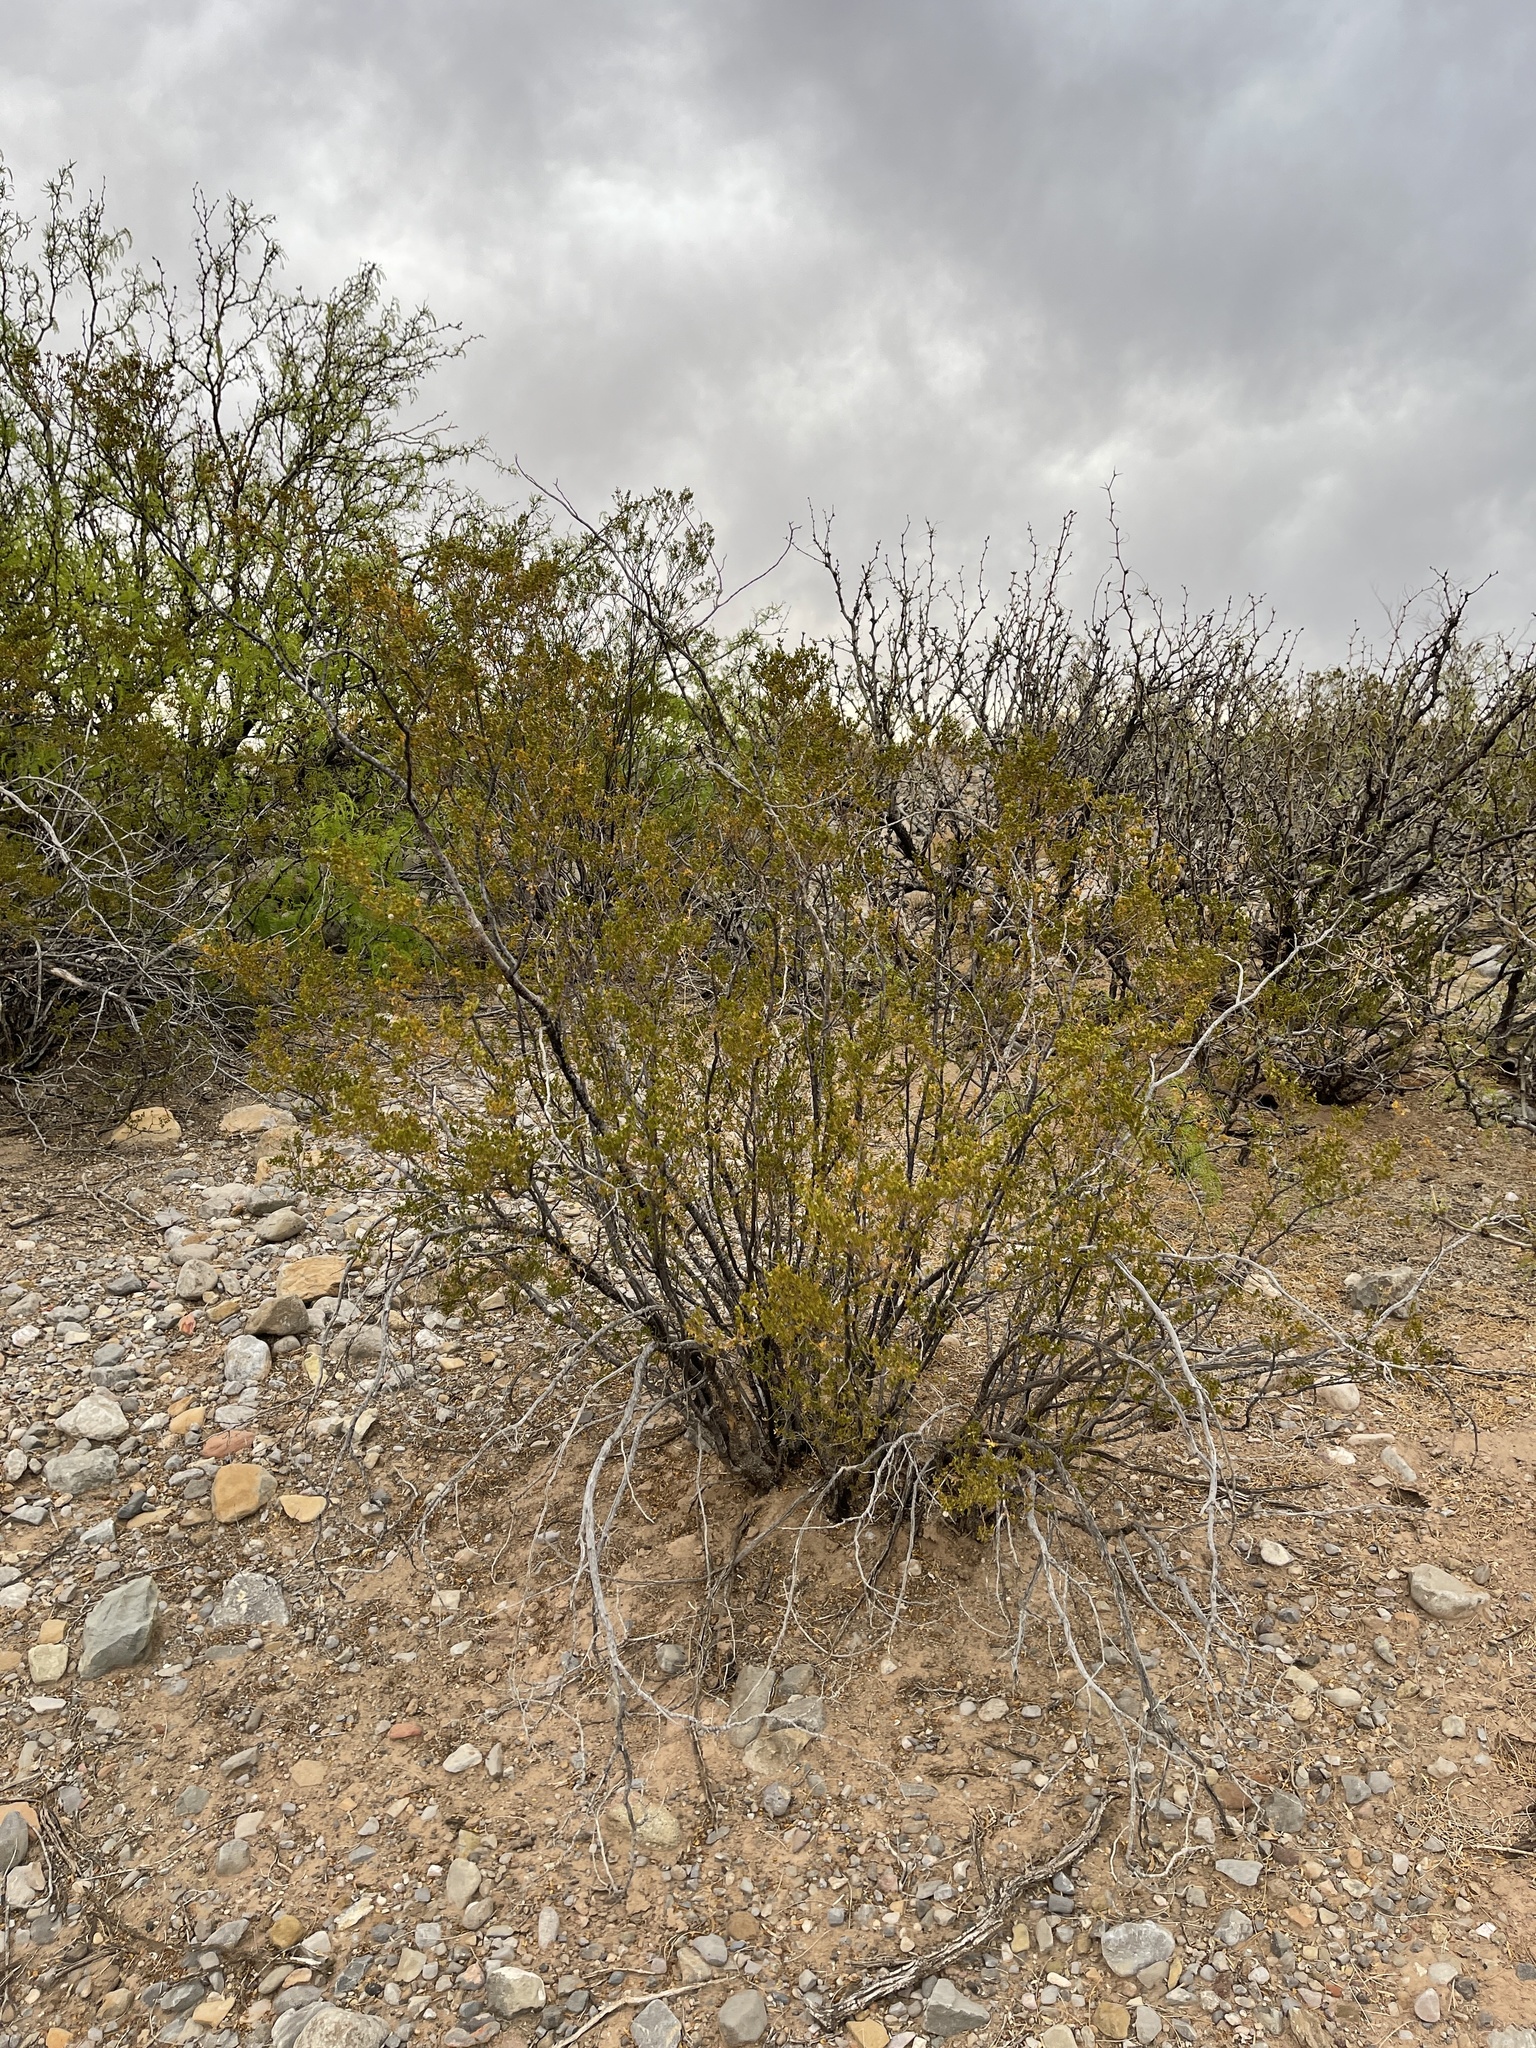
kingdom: Plantae
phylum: Tracheophyta
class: Magnoliopsida
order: Zygophyllales
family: Zygophyllaceae
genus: Larrea
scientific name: Larrea tridentata
